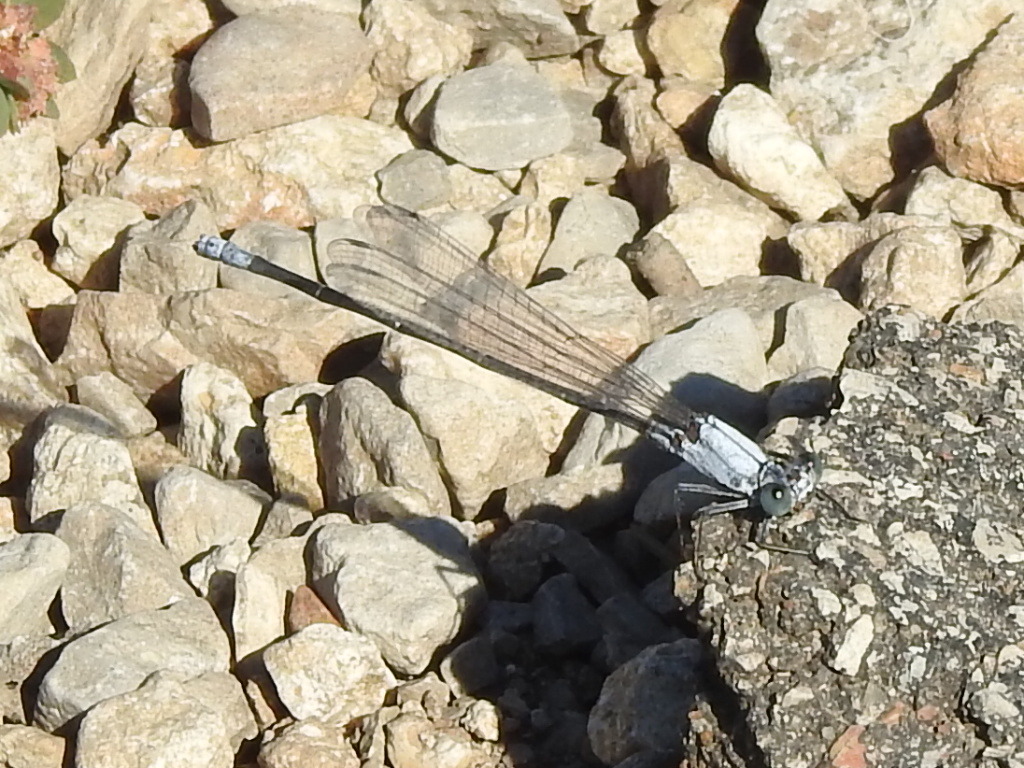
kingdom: Animalia
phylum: Arthropoda
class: Insecta
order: Odonata
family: Coenagrionidae
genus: Argia
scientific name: Argia moesta
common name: Powdered dancer
